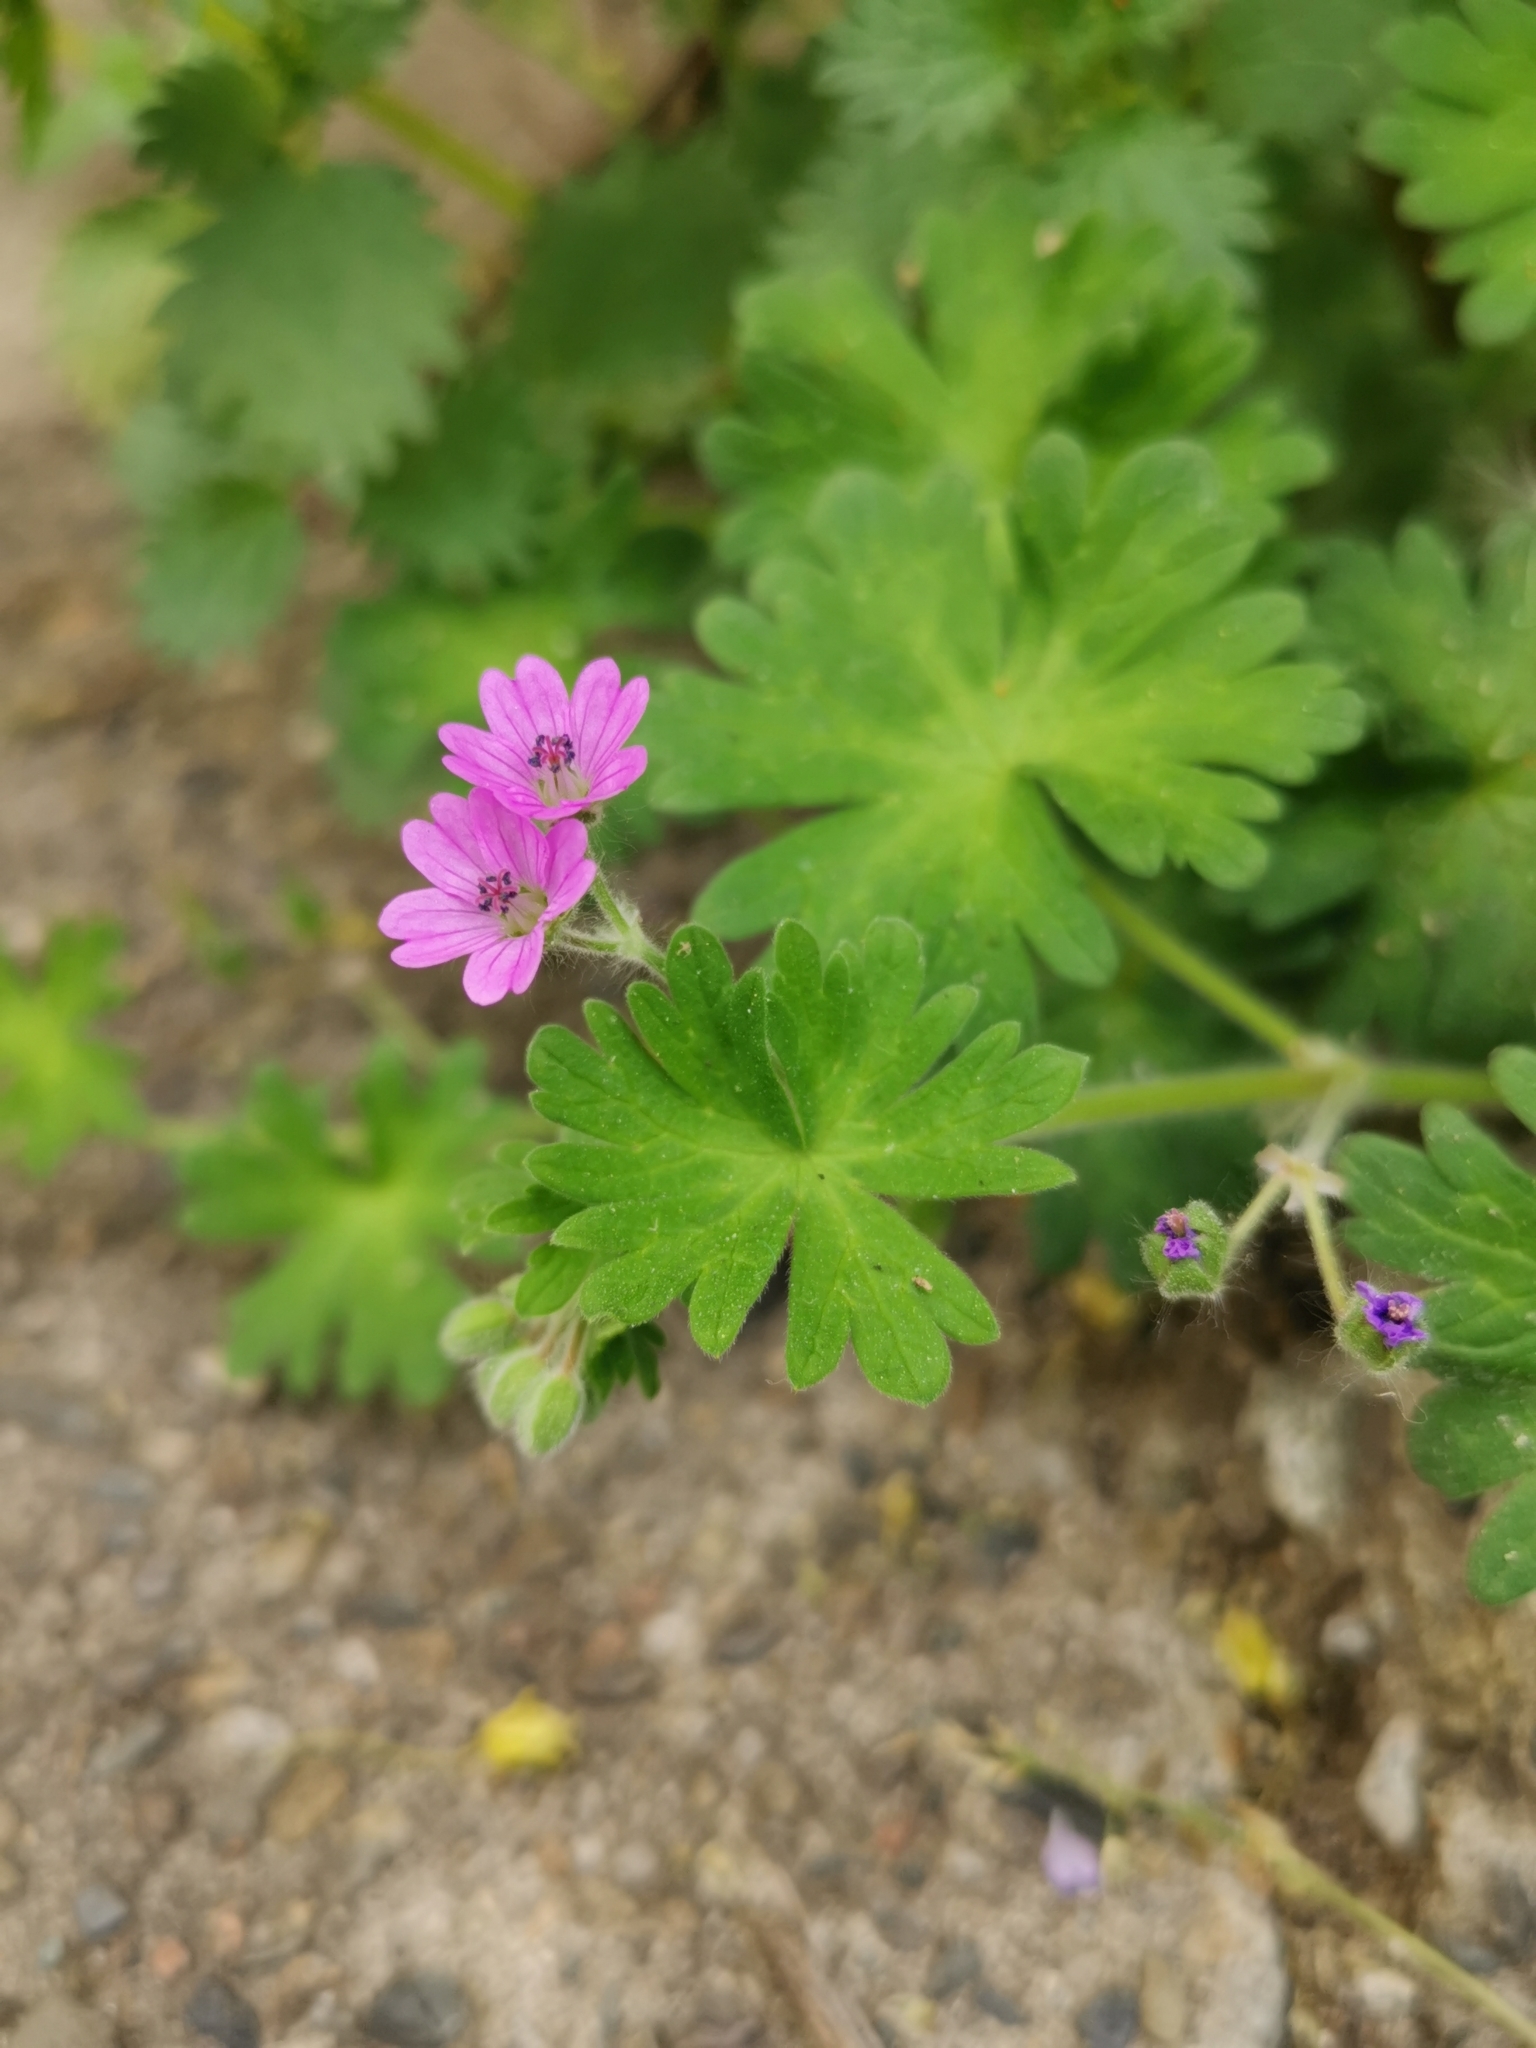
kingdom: Plantae
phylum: Tracheophyta
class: Magnoliopsida
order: Geraniales
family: Geraniaceae
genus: Geranium
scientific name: Geranium molle
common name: Dove's-foot crane's-bill
